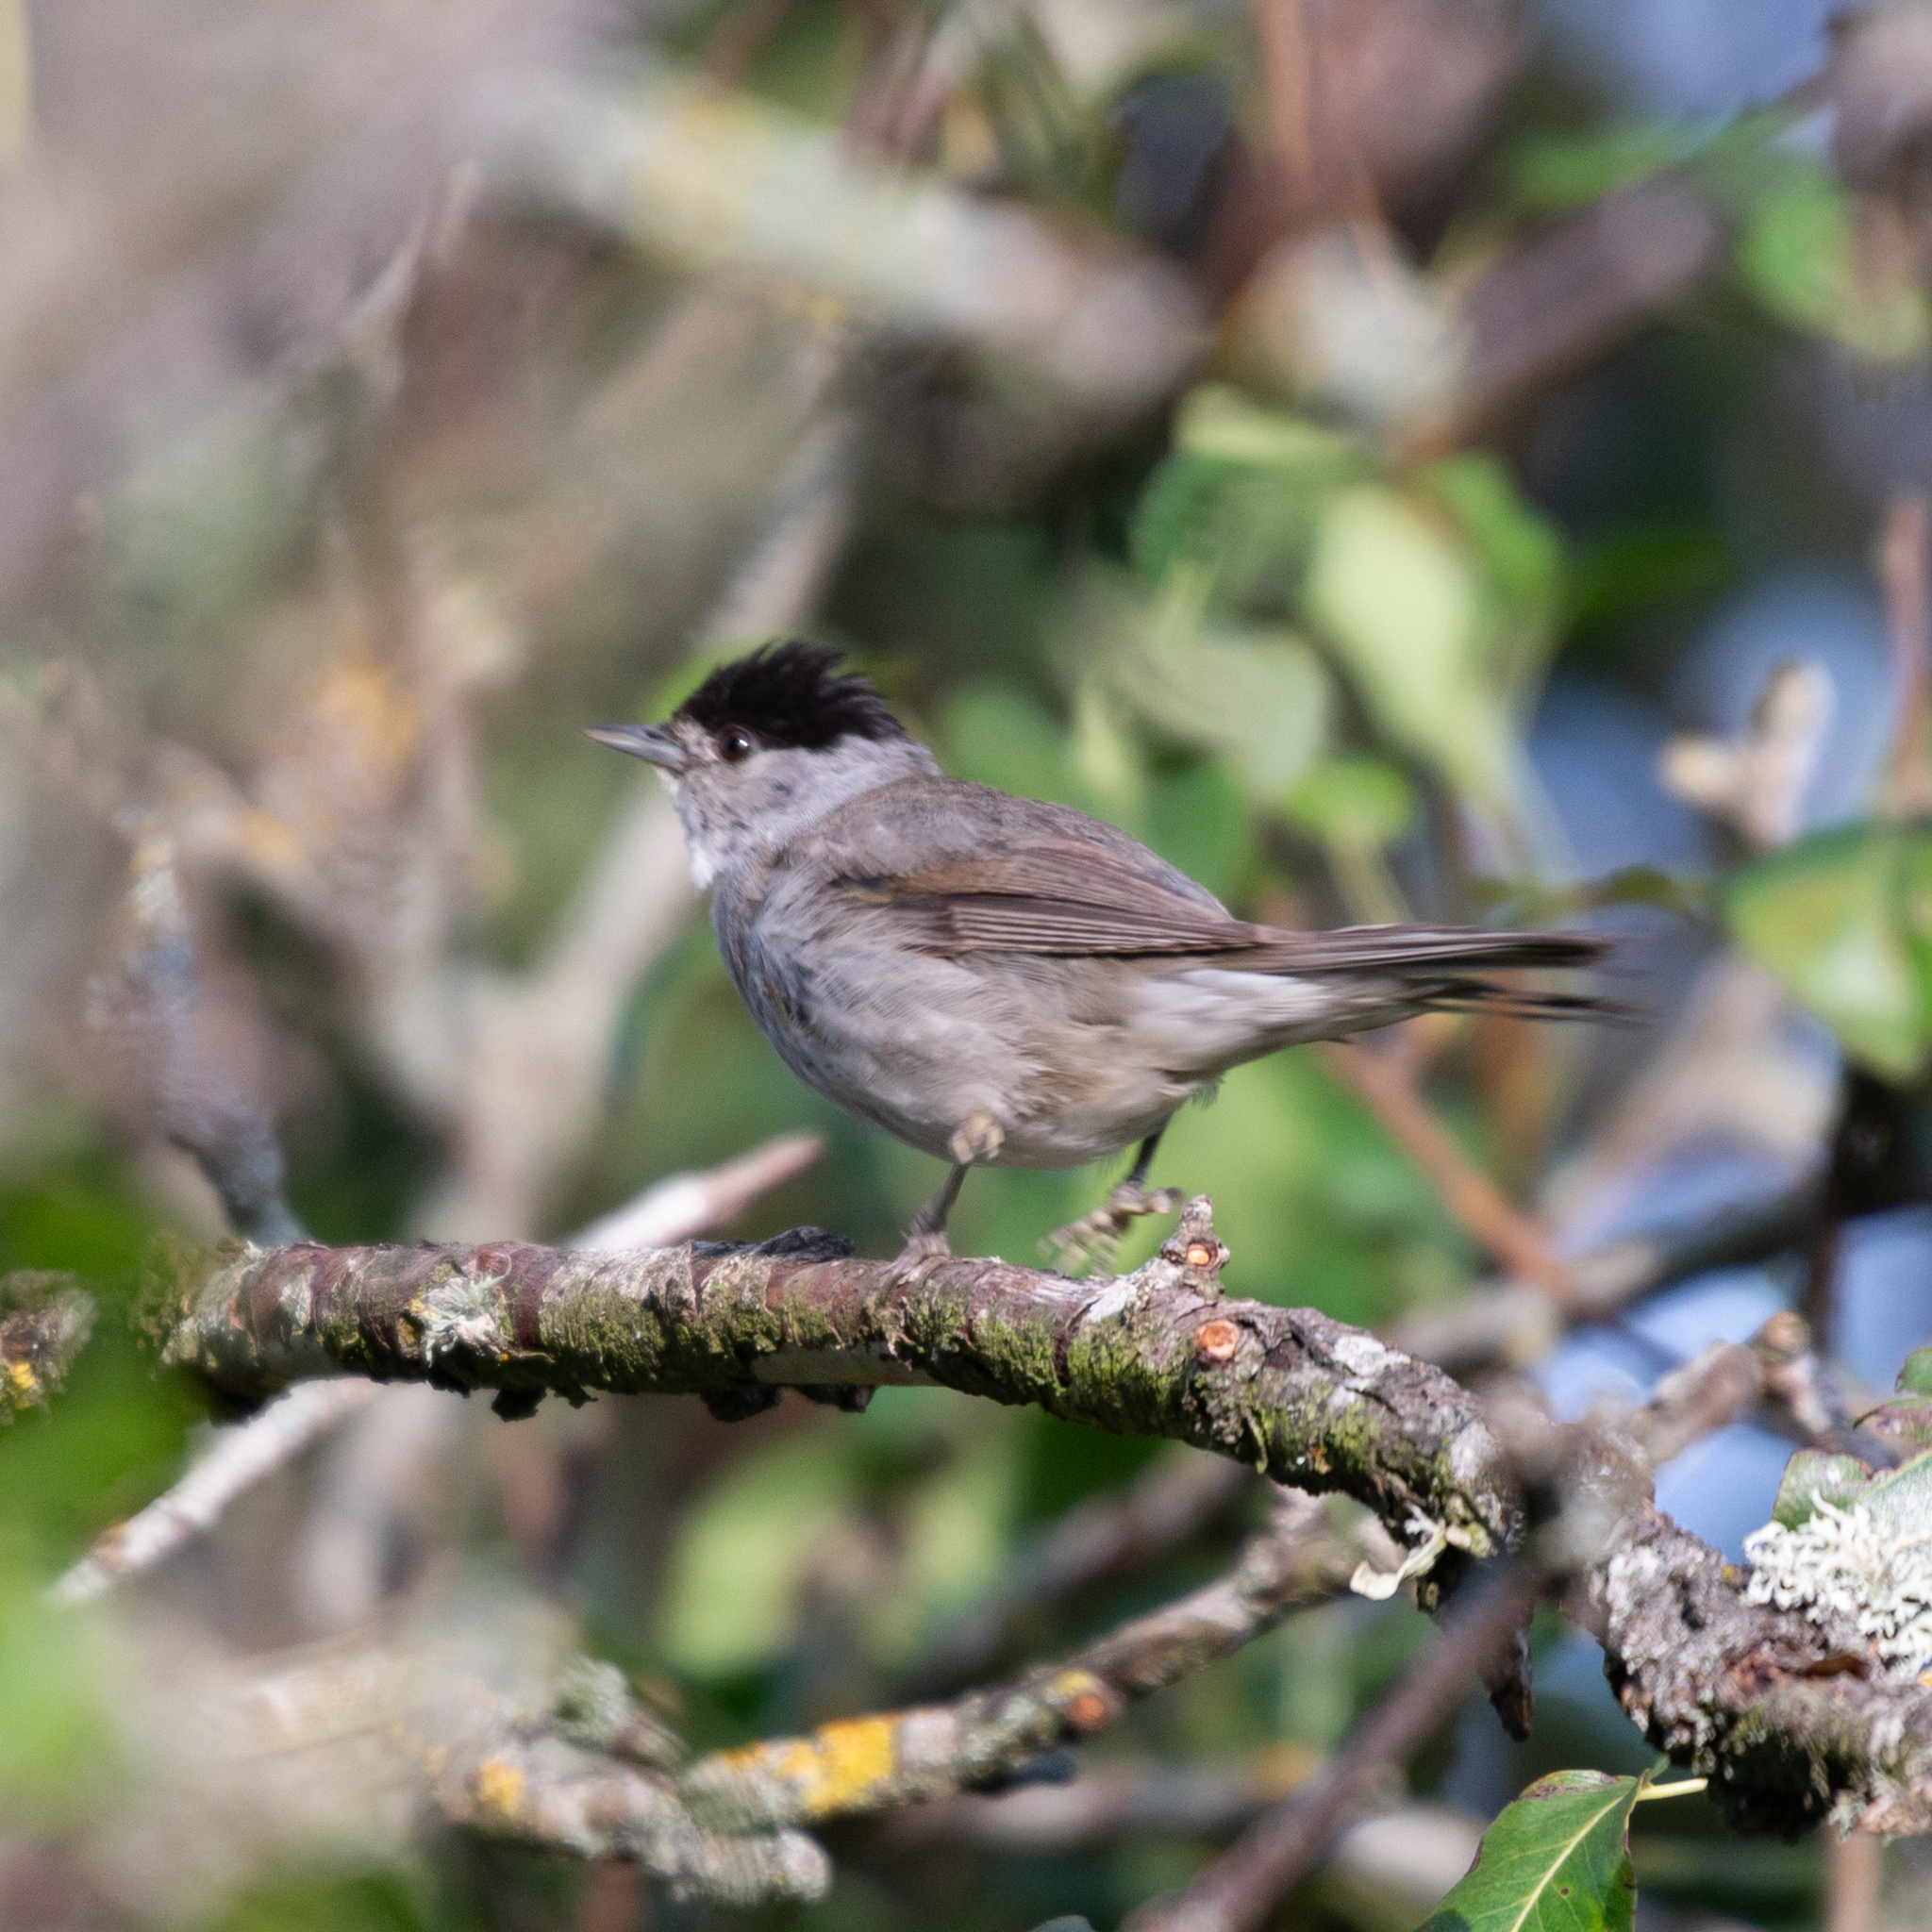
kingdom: Animalia
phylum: Chordata
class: Aves
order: Passeriformes
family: Sylviidae
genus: Sylvia
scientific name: Sylvia atricapilla
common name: Eurasian blackcap
